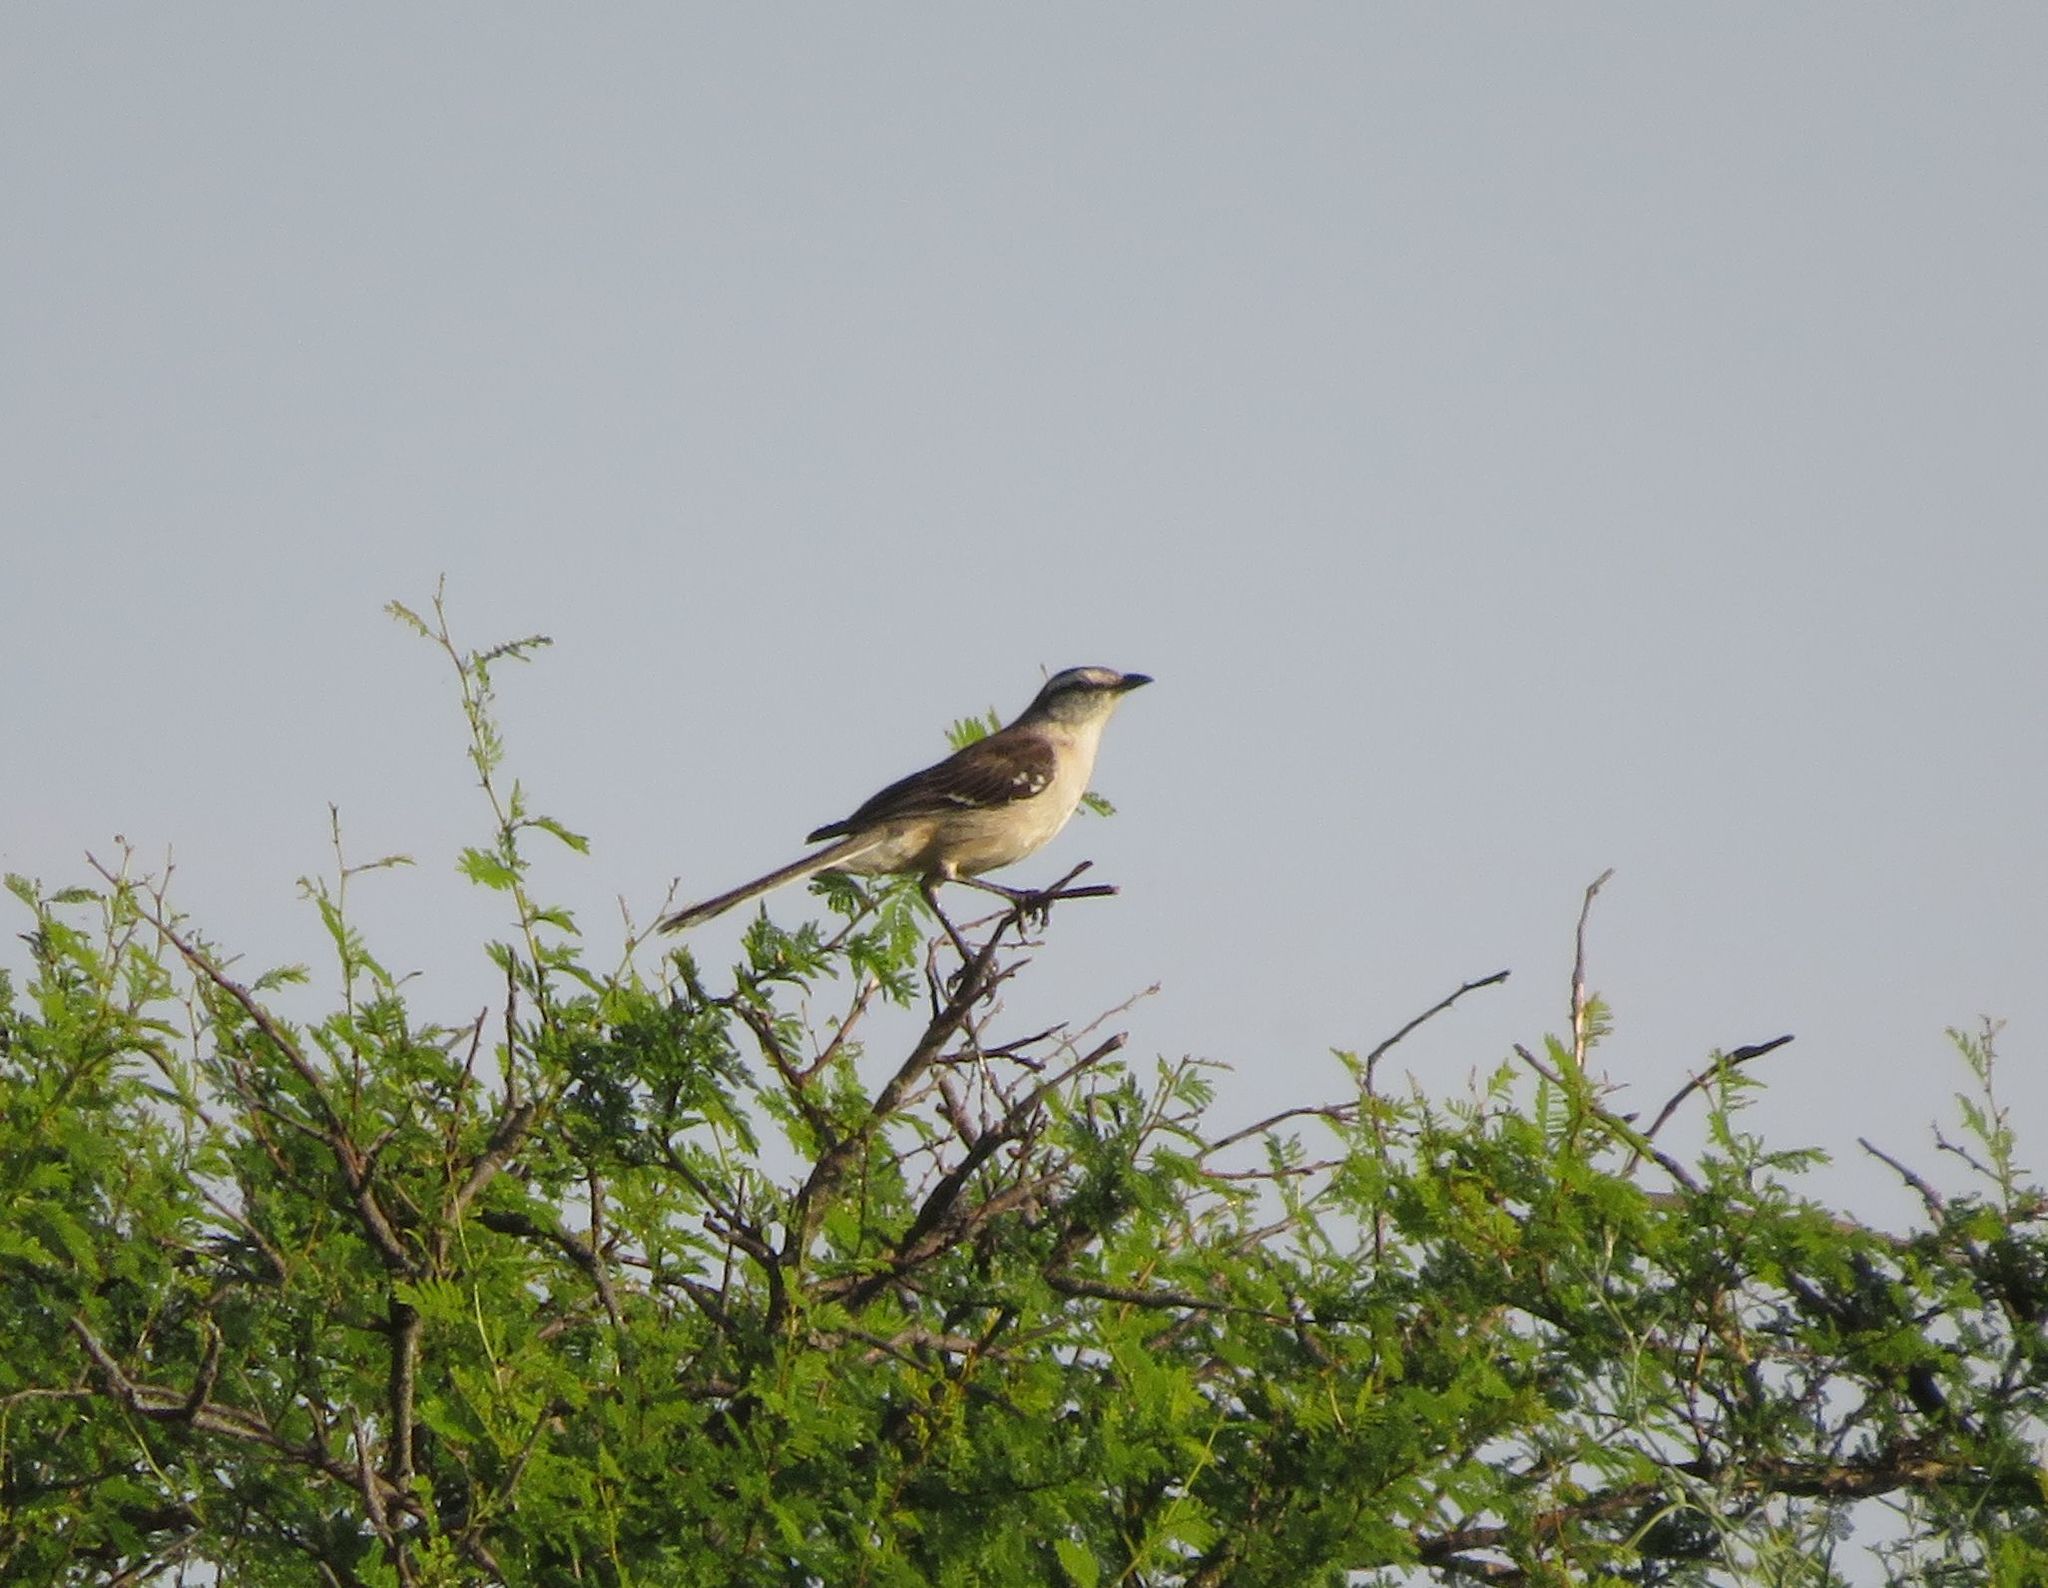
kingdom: Animalia
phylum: Chordata
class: Aves
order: Passeriformes
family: Mimidae
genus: Mimus
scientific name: Mimus saturninus
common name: Chalk-browed mockingbird
